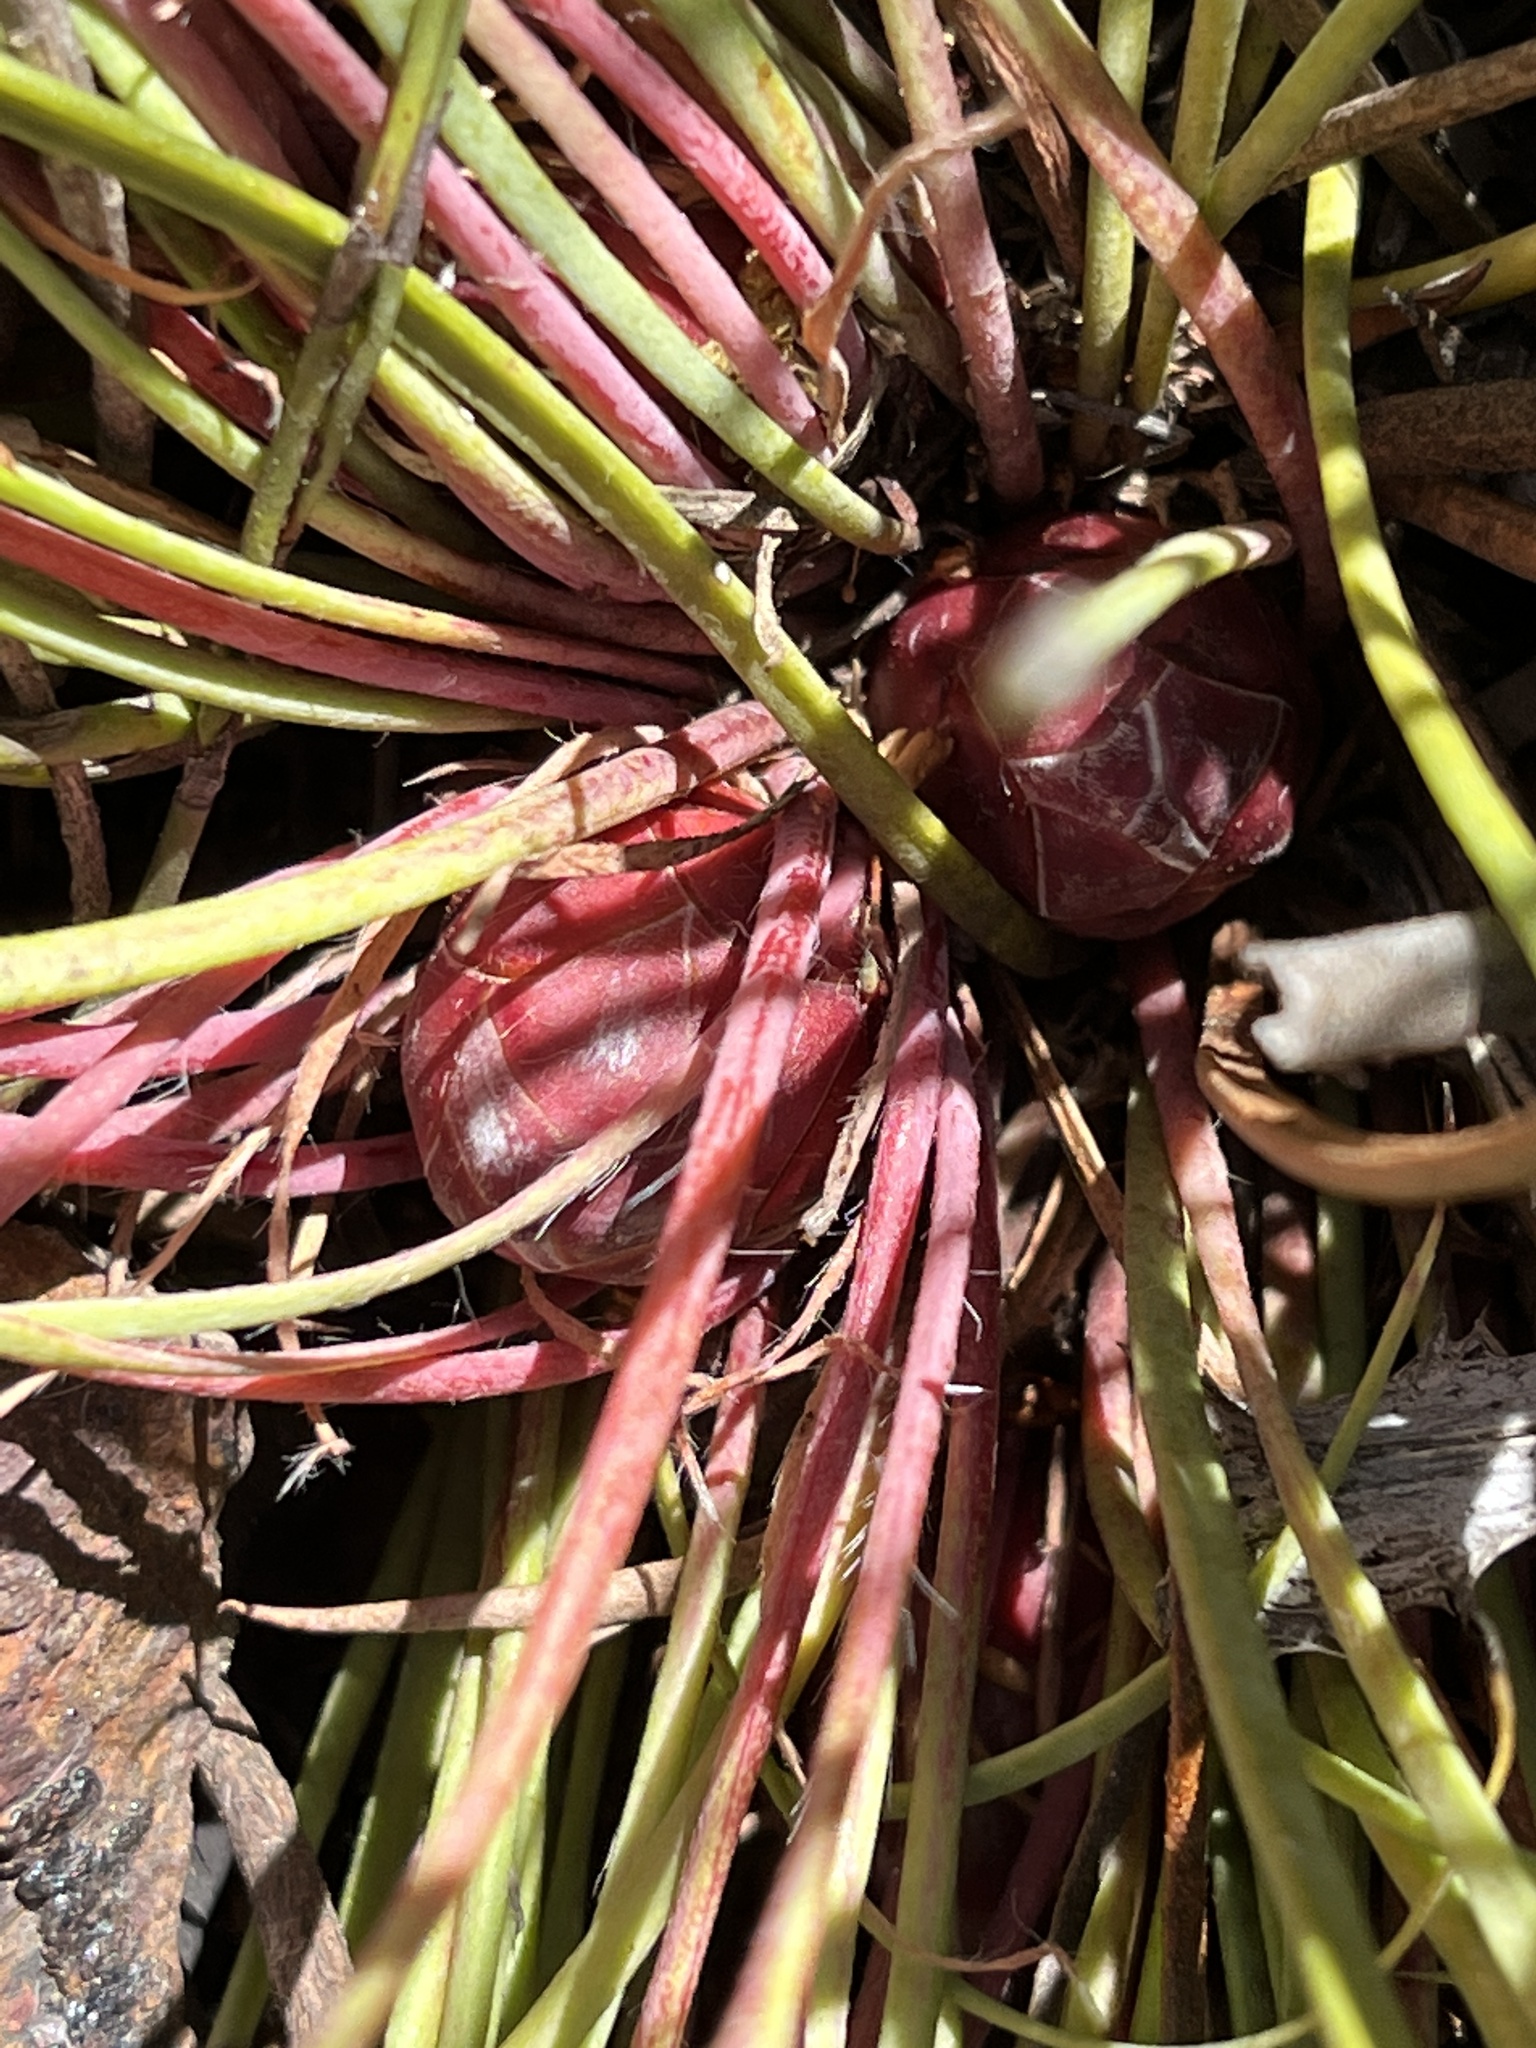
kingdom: Plantae
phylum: Tracheophyta
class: Magnoliopsida
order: Proteales
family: Proteaceae
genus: Protea
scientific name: Protea intonsa
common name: Tufted sugarbush
